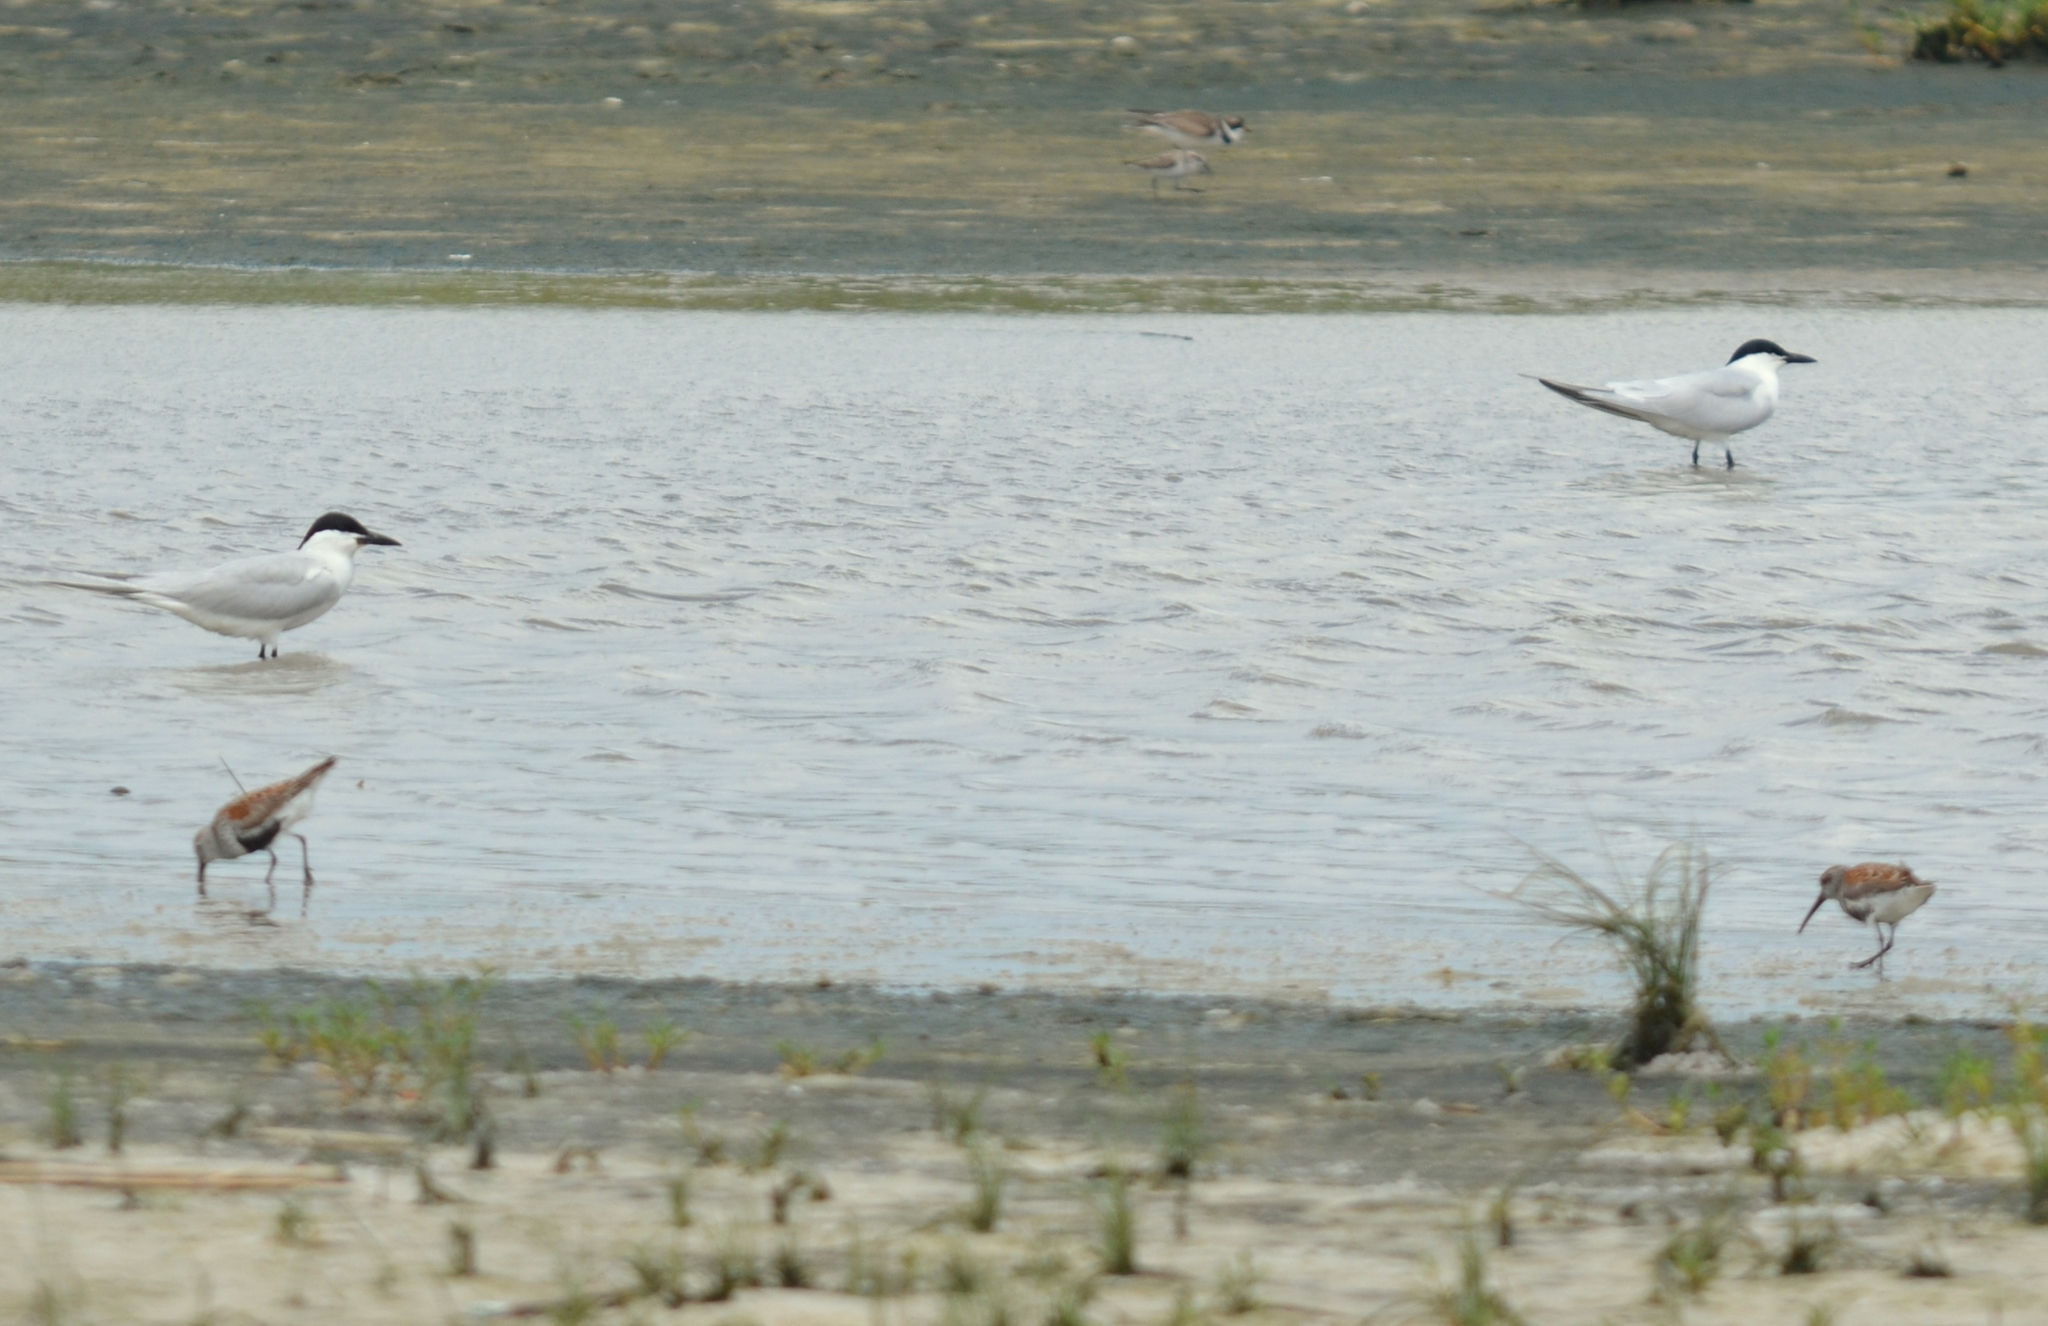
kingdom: Animalia
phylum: Chordata
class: Aves
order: Charadriiformes
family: Laridae
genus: Gelochelidon
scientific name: Gelochelidon nilotica
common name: Gull-billed tern
